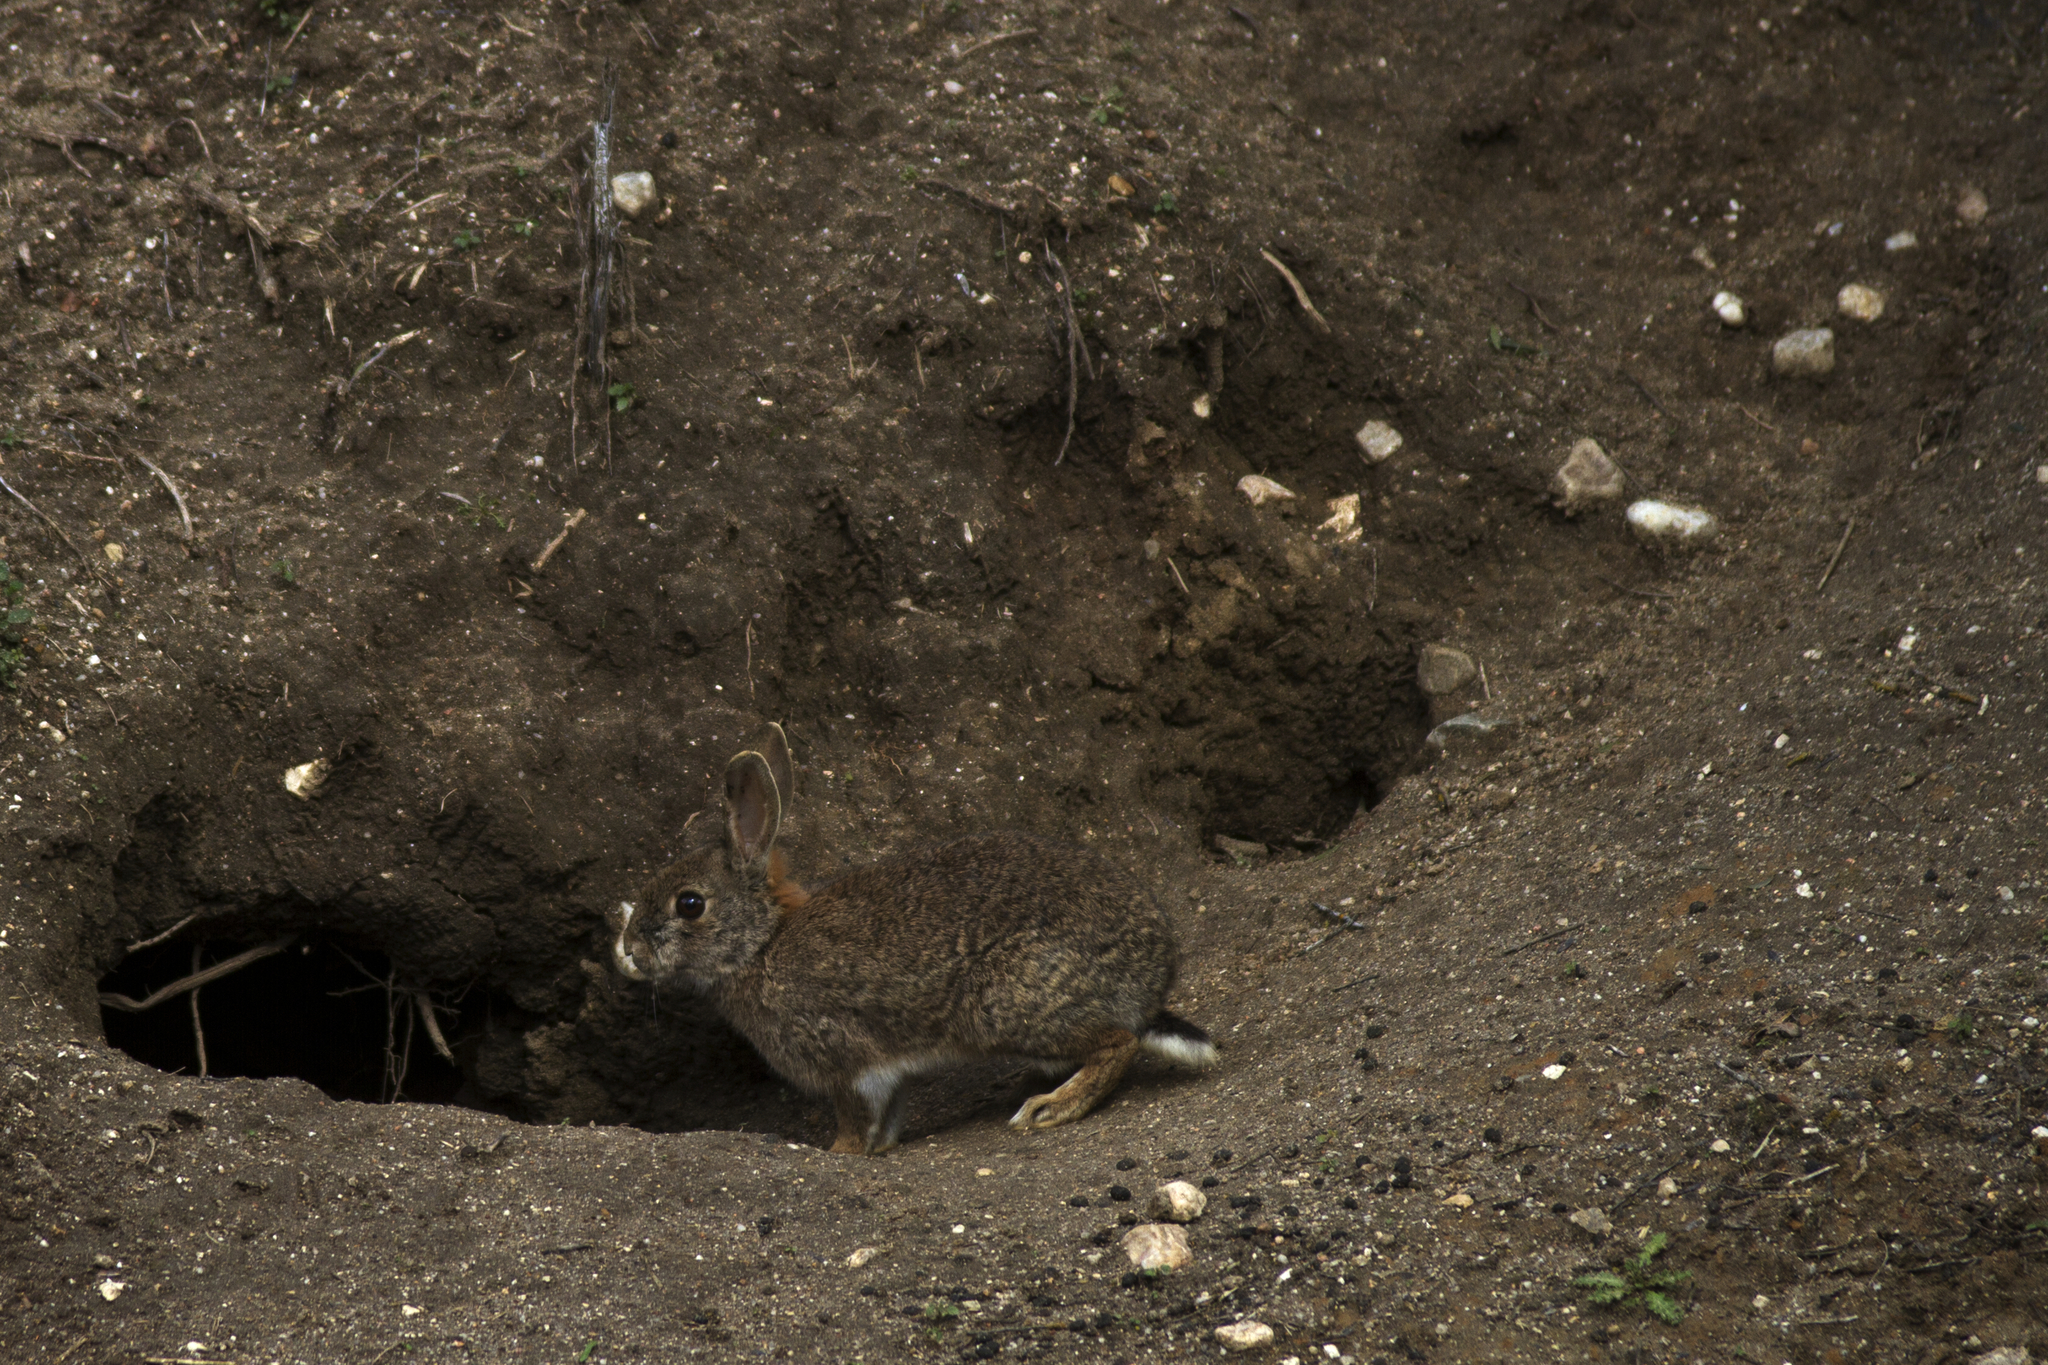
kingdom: Animalia
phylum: Chordata
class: Mammalia
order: Lagomorpha
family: Leporidae
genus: Oryctolagus
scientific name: Oryctolagus cuniculus
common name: European rabbit
